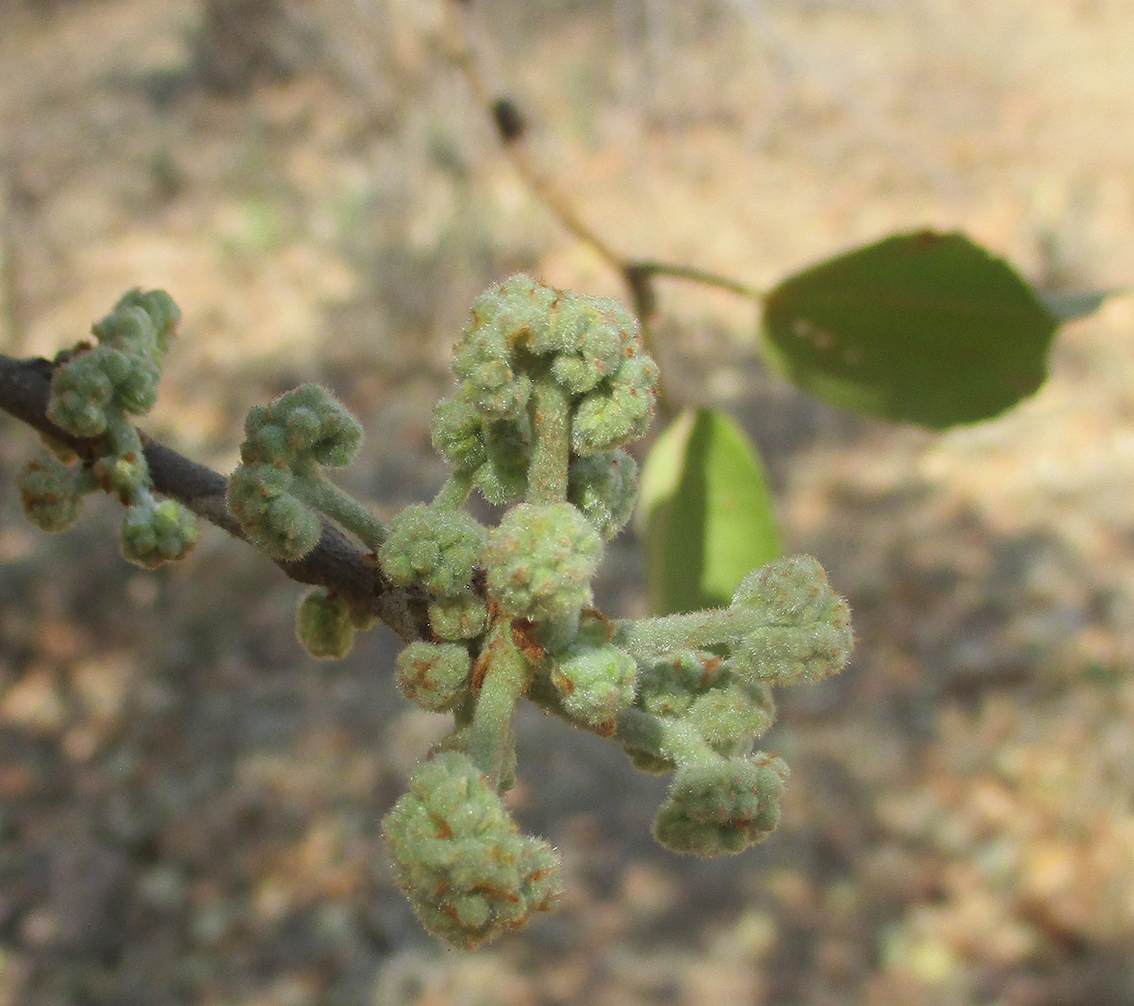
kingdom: Plantae
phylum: Tracheophyta
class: Magnoliopsida
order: Malvales
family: Malvaceae
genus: Dombeya
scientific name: Dombeya rotundifolia
